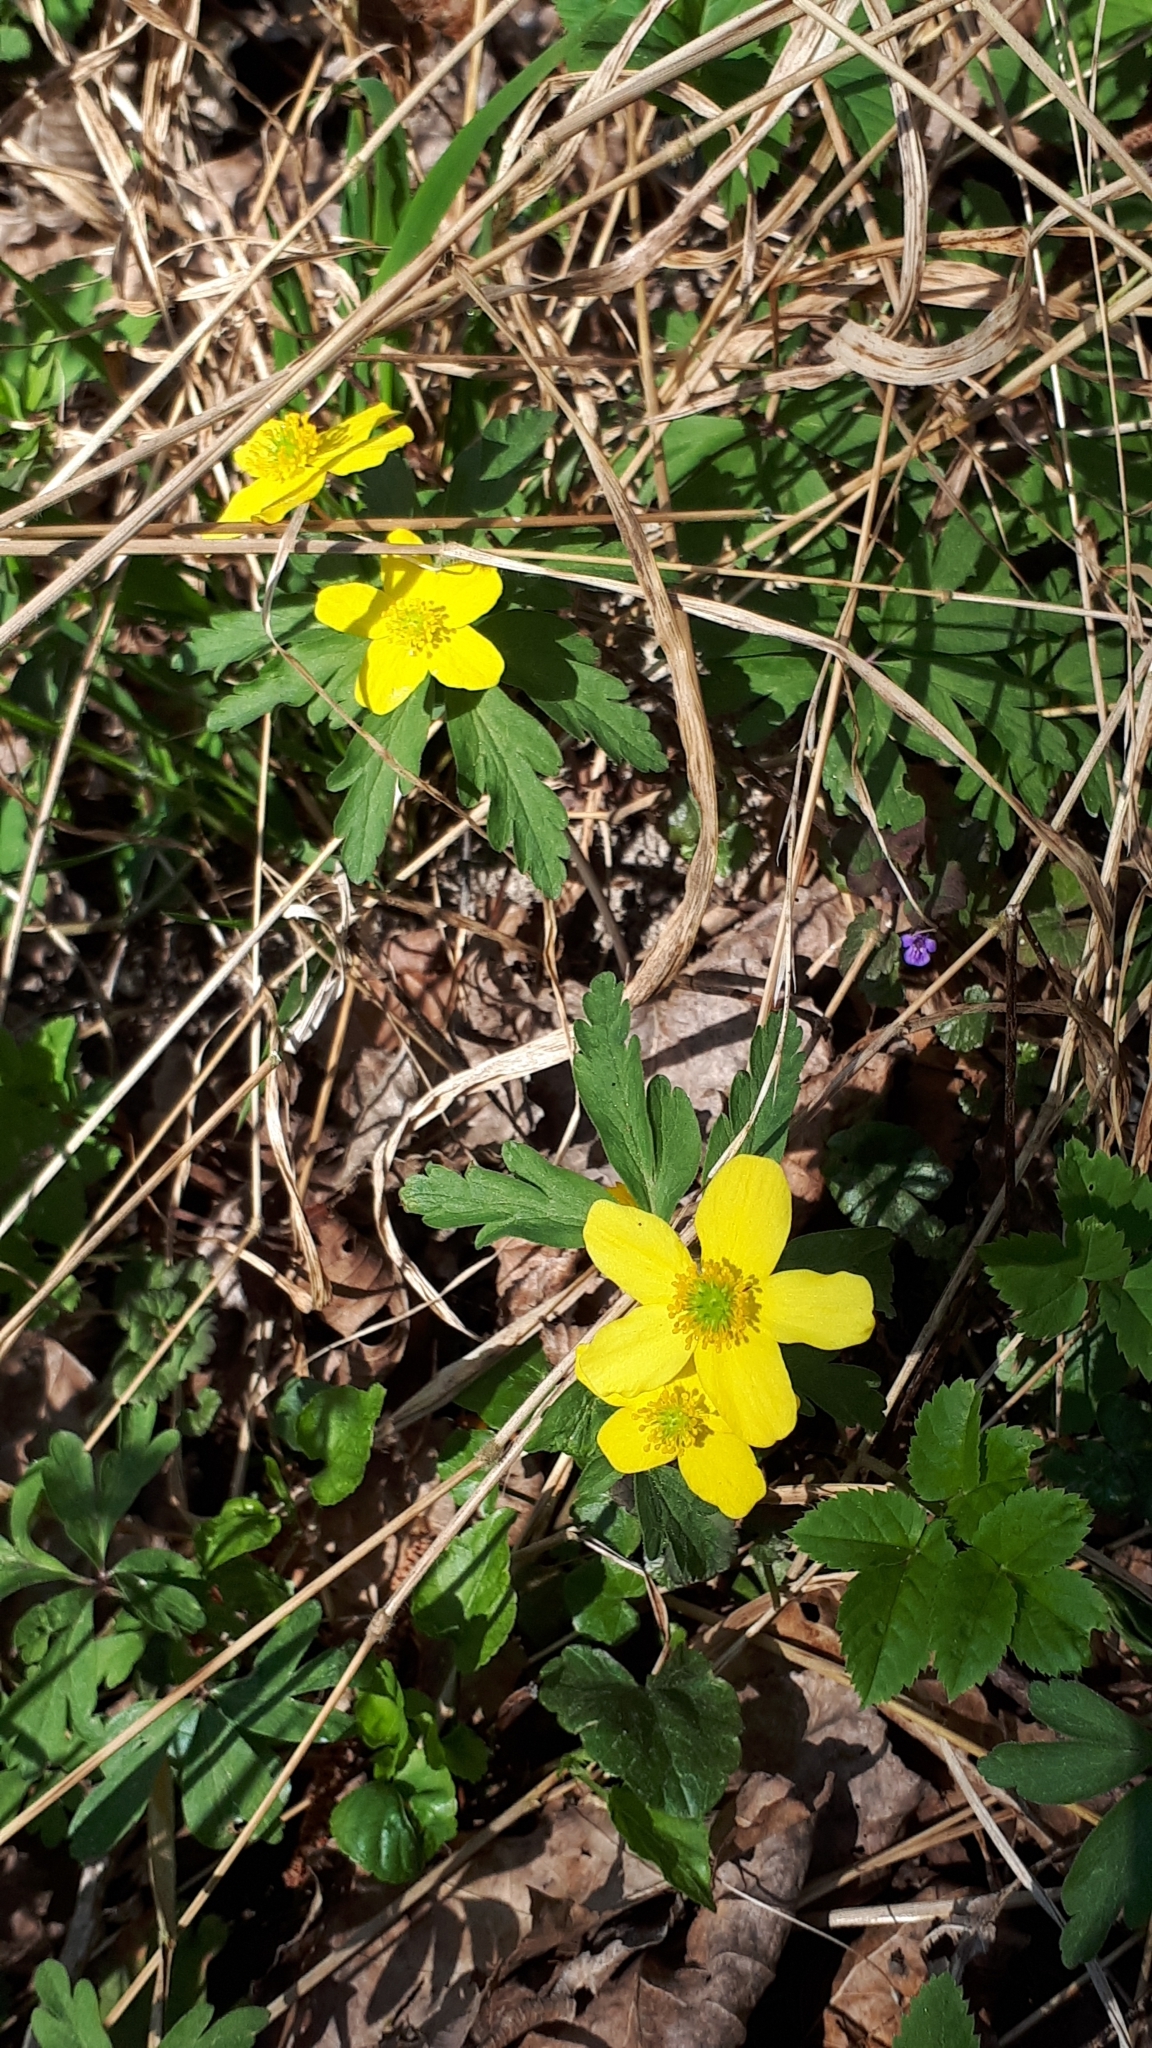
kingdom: Plantae
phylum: Tracheophyta
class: Magnoliopsida
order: Ranunculales
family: Ranunculaceae
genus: Anemone
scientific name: Anemone ranunculoides
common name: Yellow anemone
